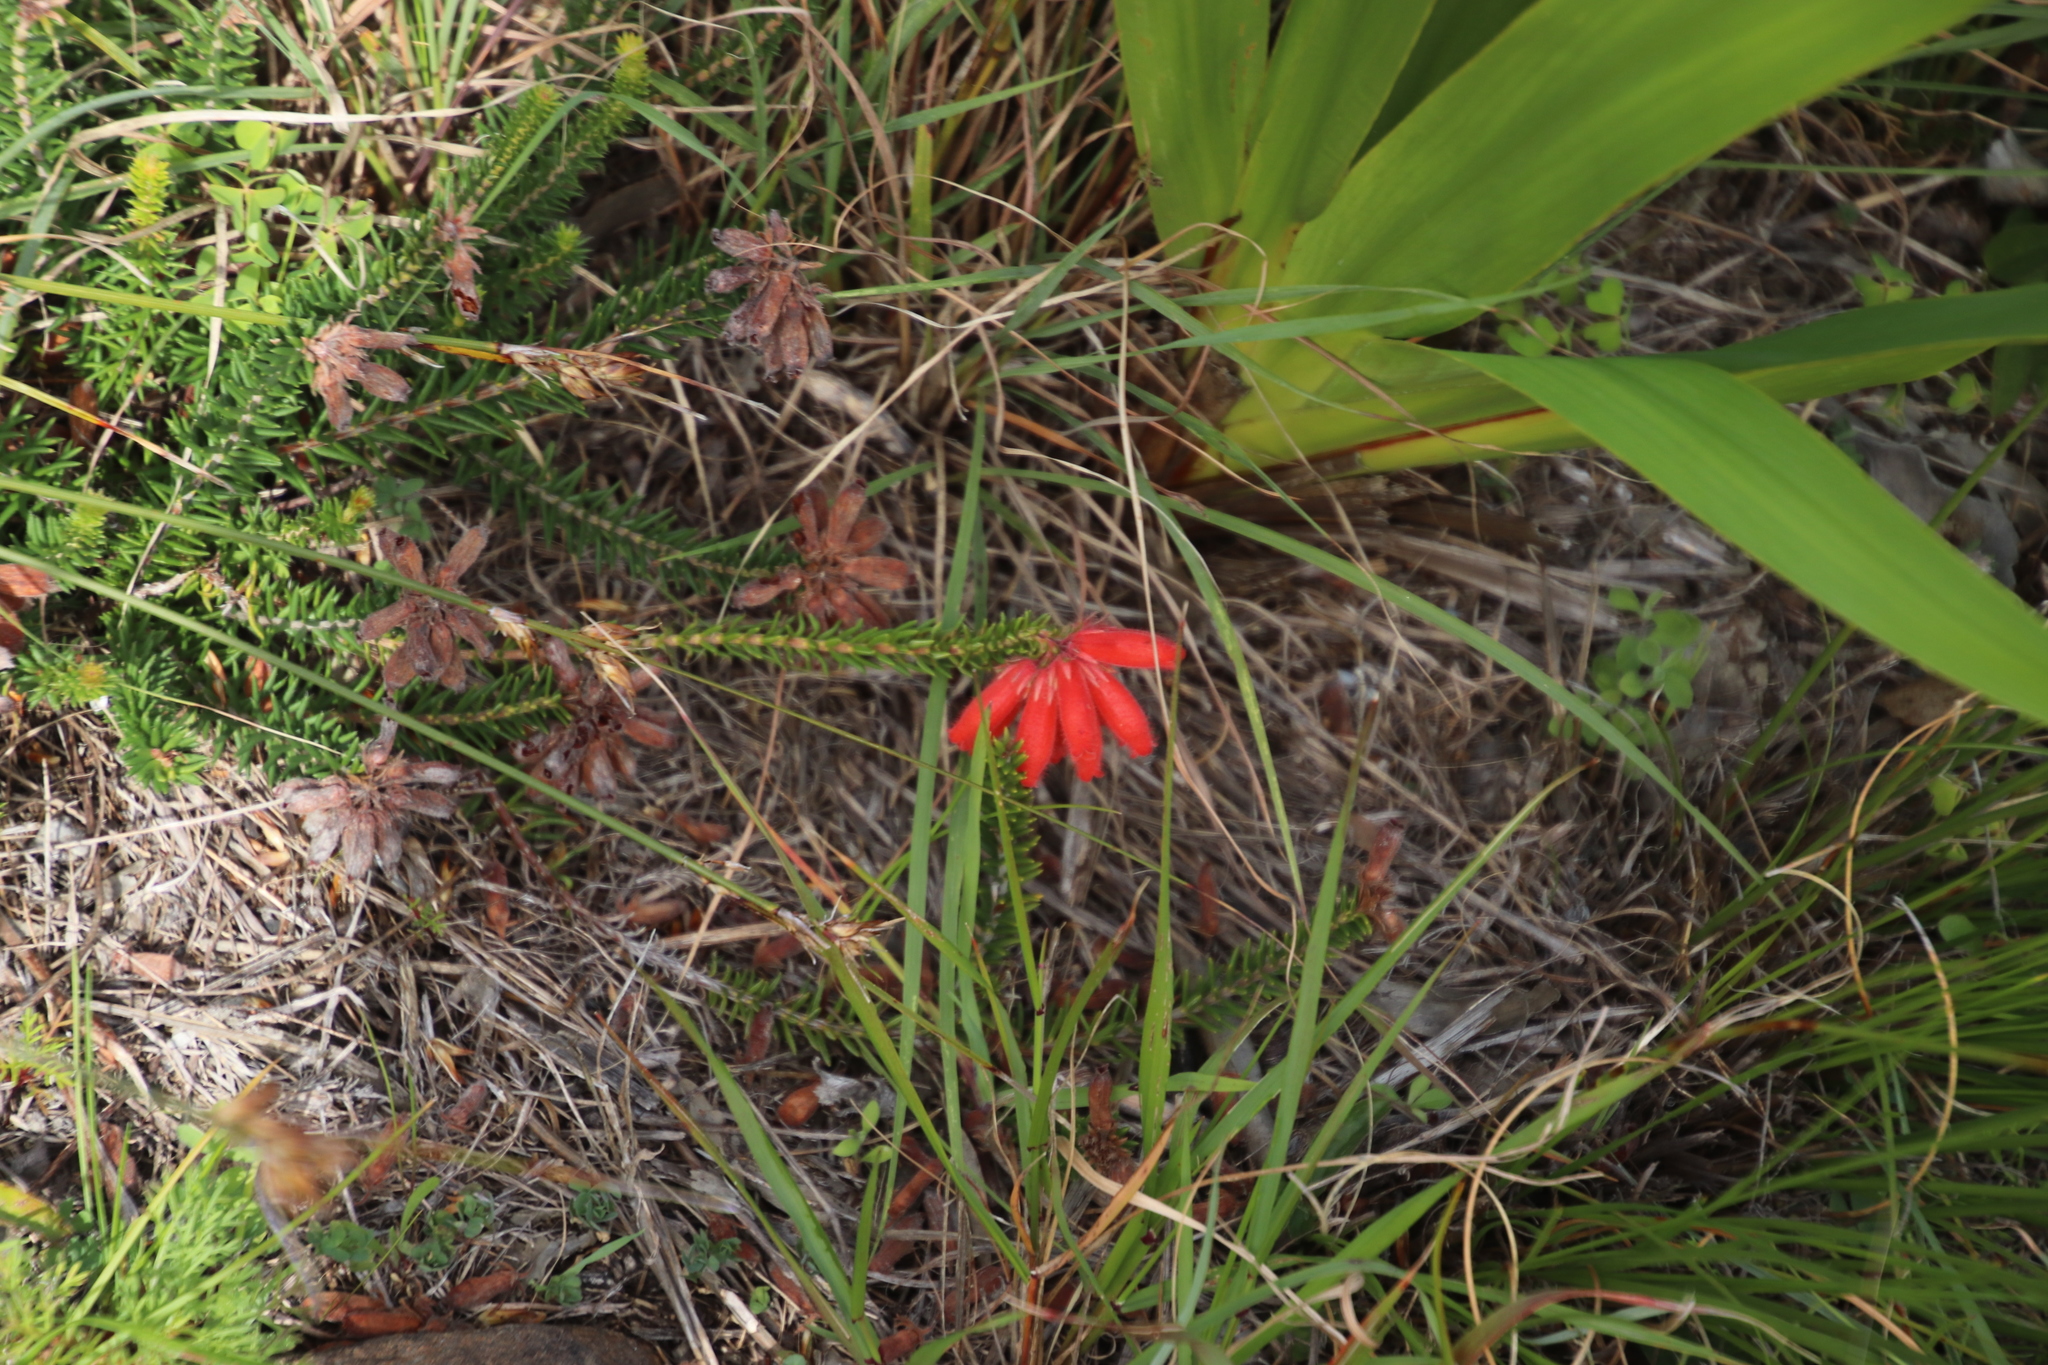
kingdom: Plantae
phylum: Tracheophyta
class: Magnoliopsida
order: Ericales
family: Ericaceae
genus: Erica
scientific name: Erica cerinthoides
